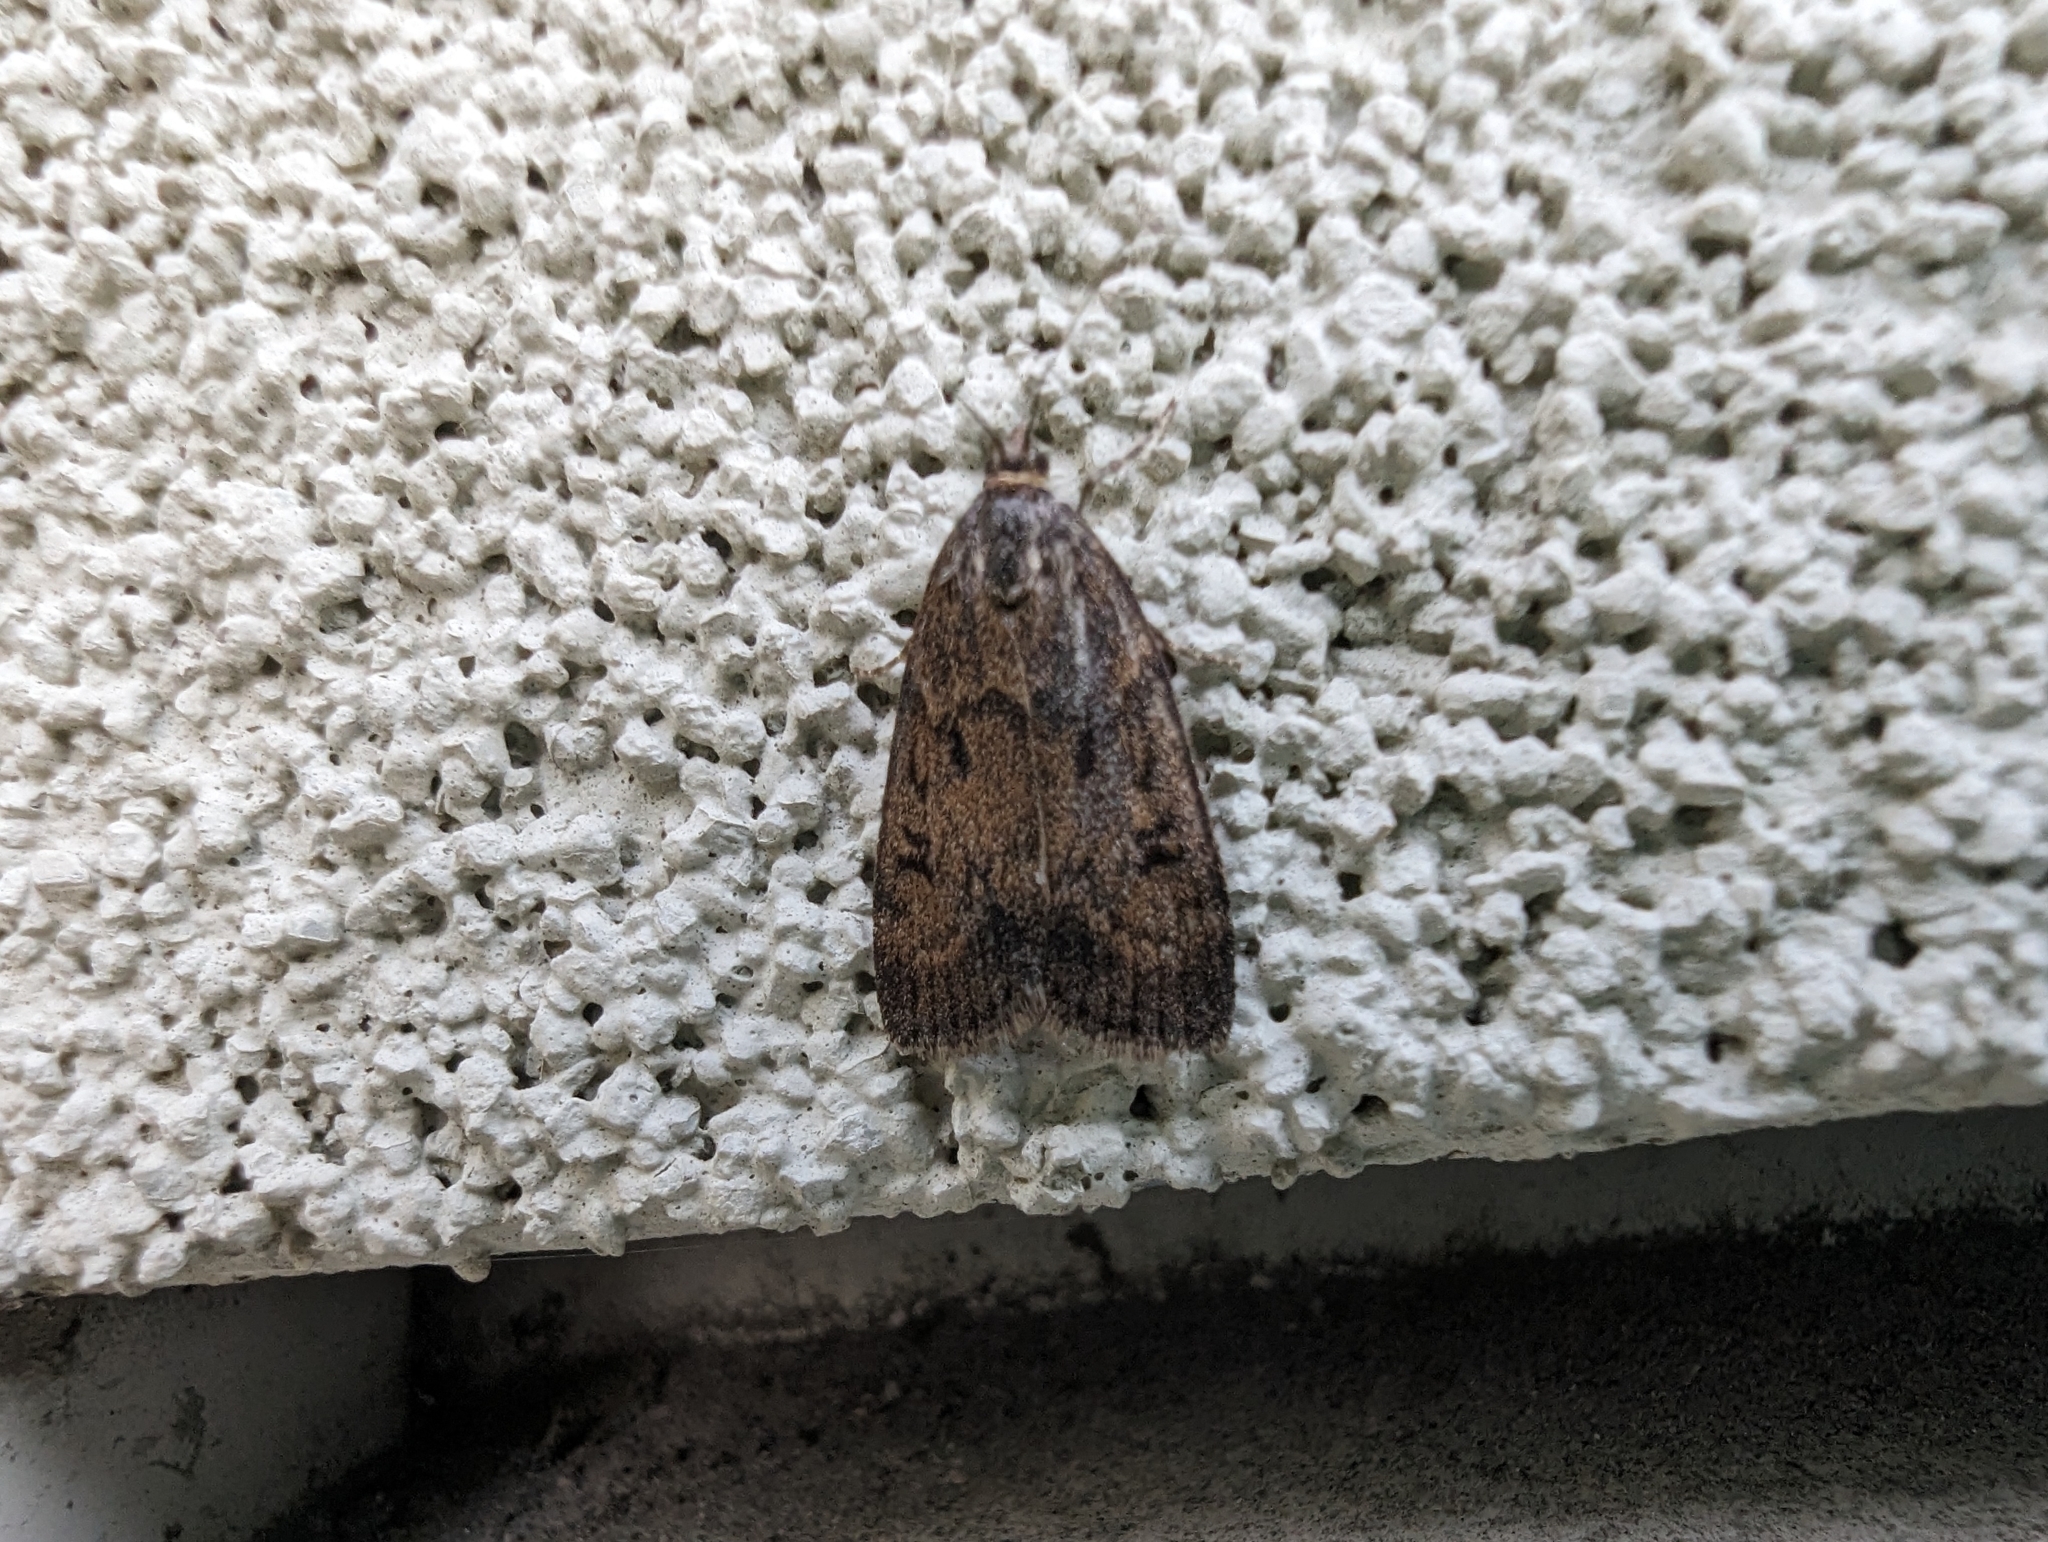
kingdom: Animalia
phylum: Arthropoda
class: Insecta
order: Lepidoptera
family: Crambidae
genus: Gesneria
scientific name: Gesneria centuriella
